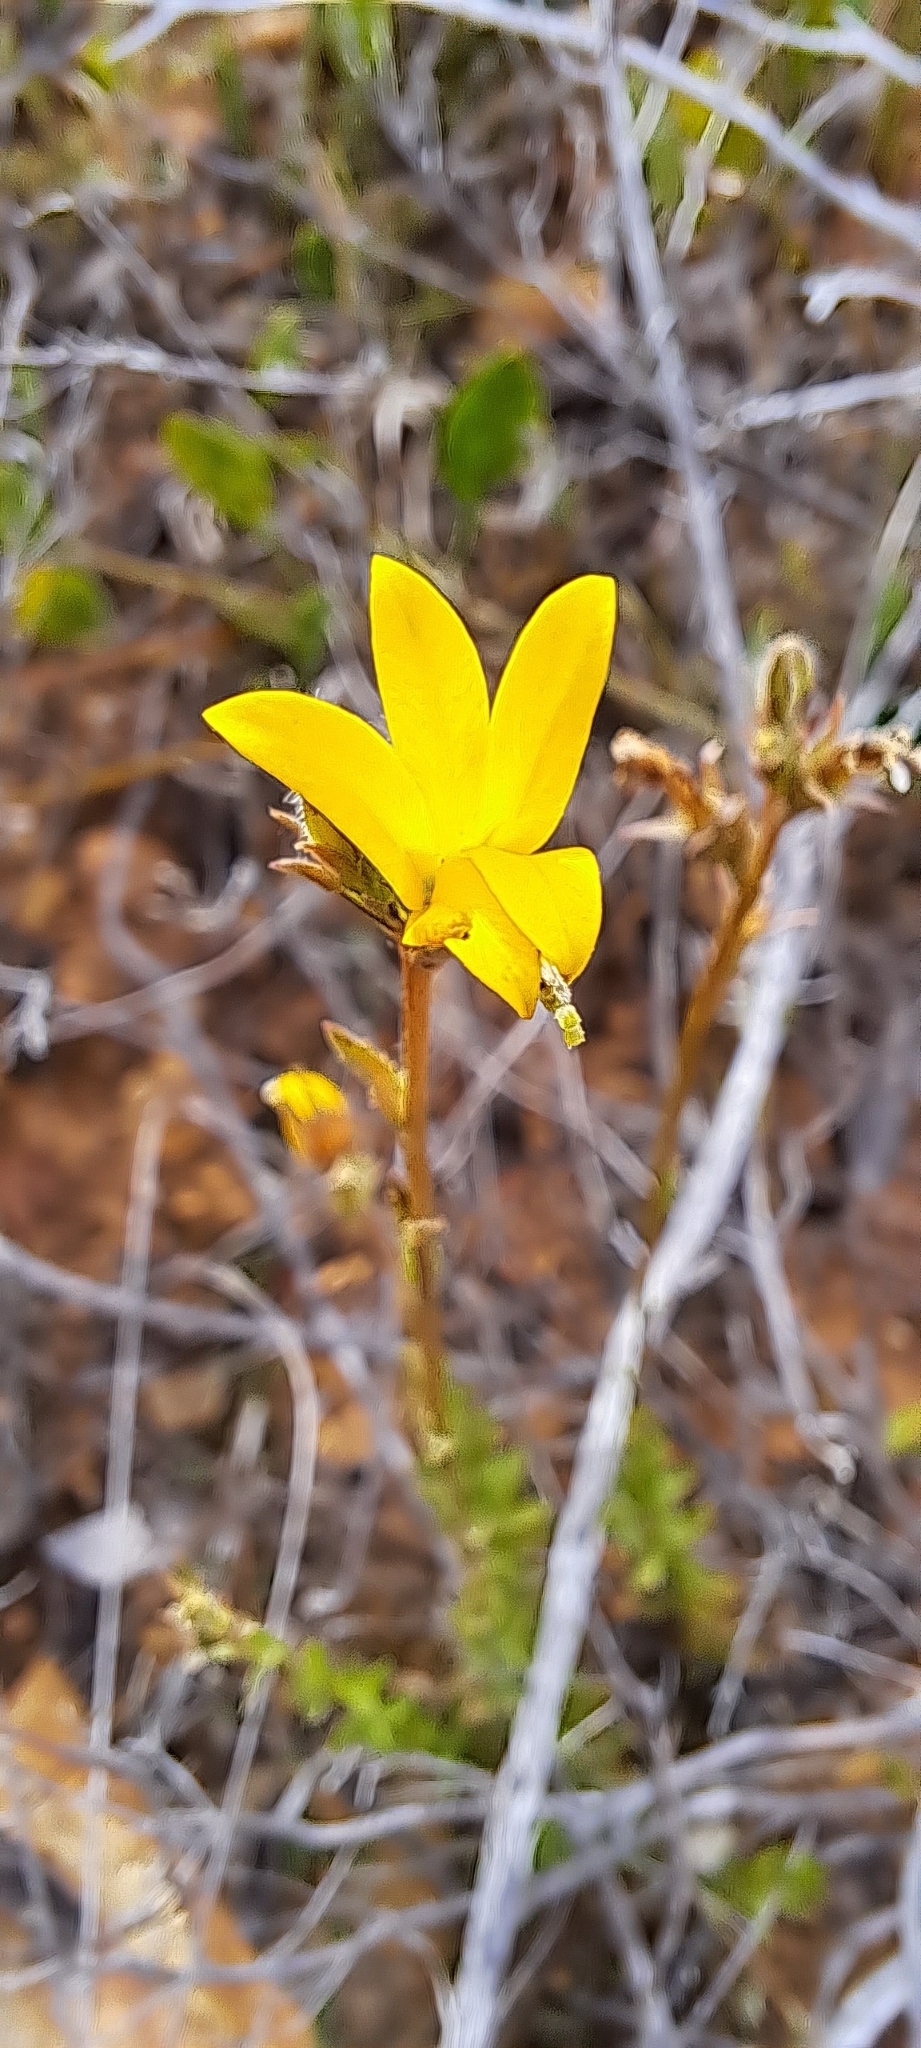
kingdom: Plantae
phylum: Tracheophyta
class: Magnoliopsida
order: Asterales
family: Campanulaceae
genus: Monopsis
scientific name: Monopsis lutea
